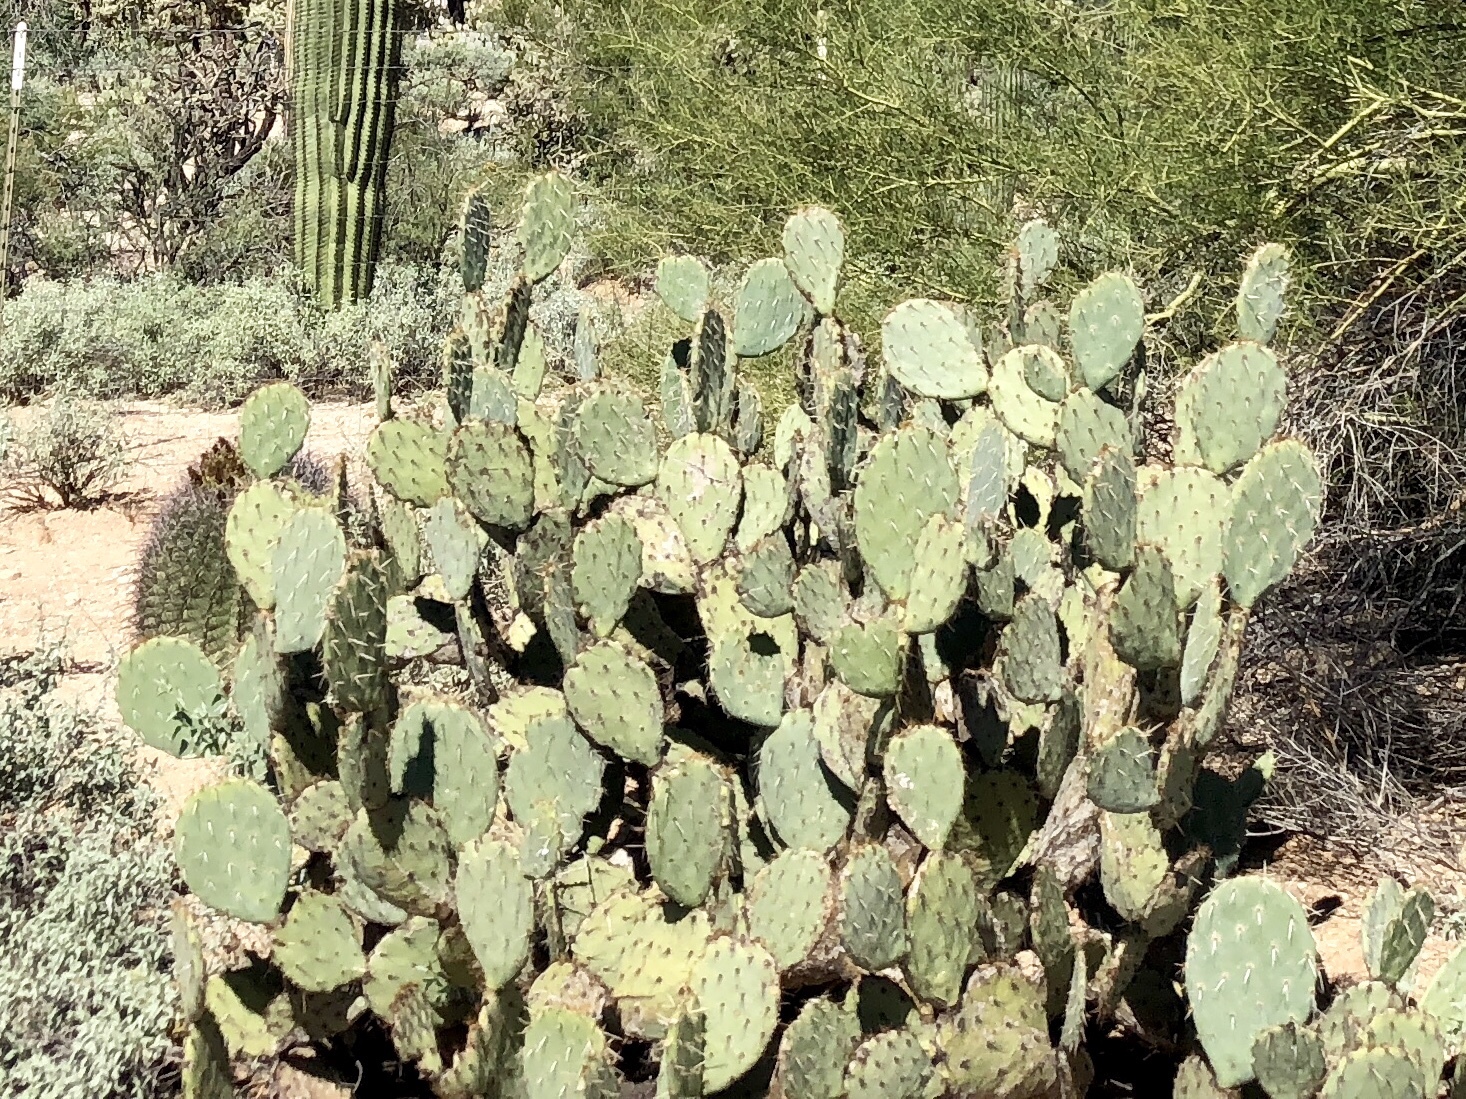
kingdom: Plantae
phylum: Tracheophyta
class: Magnoliopsida
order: Caryophyllales
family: Cactaceae
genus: Opuntia
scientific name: Opuntia engelmannii
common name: Cactus-apple
